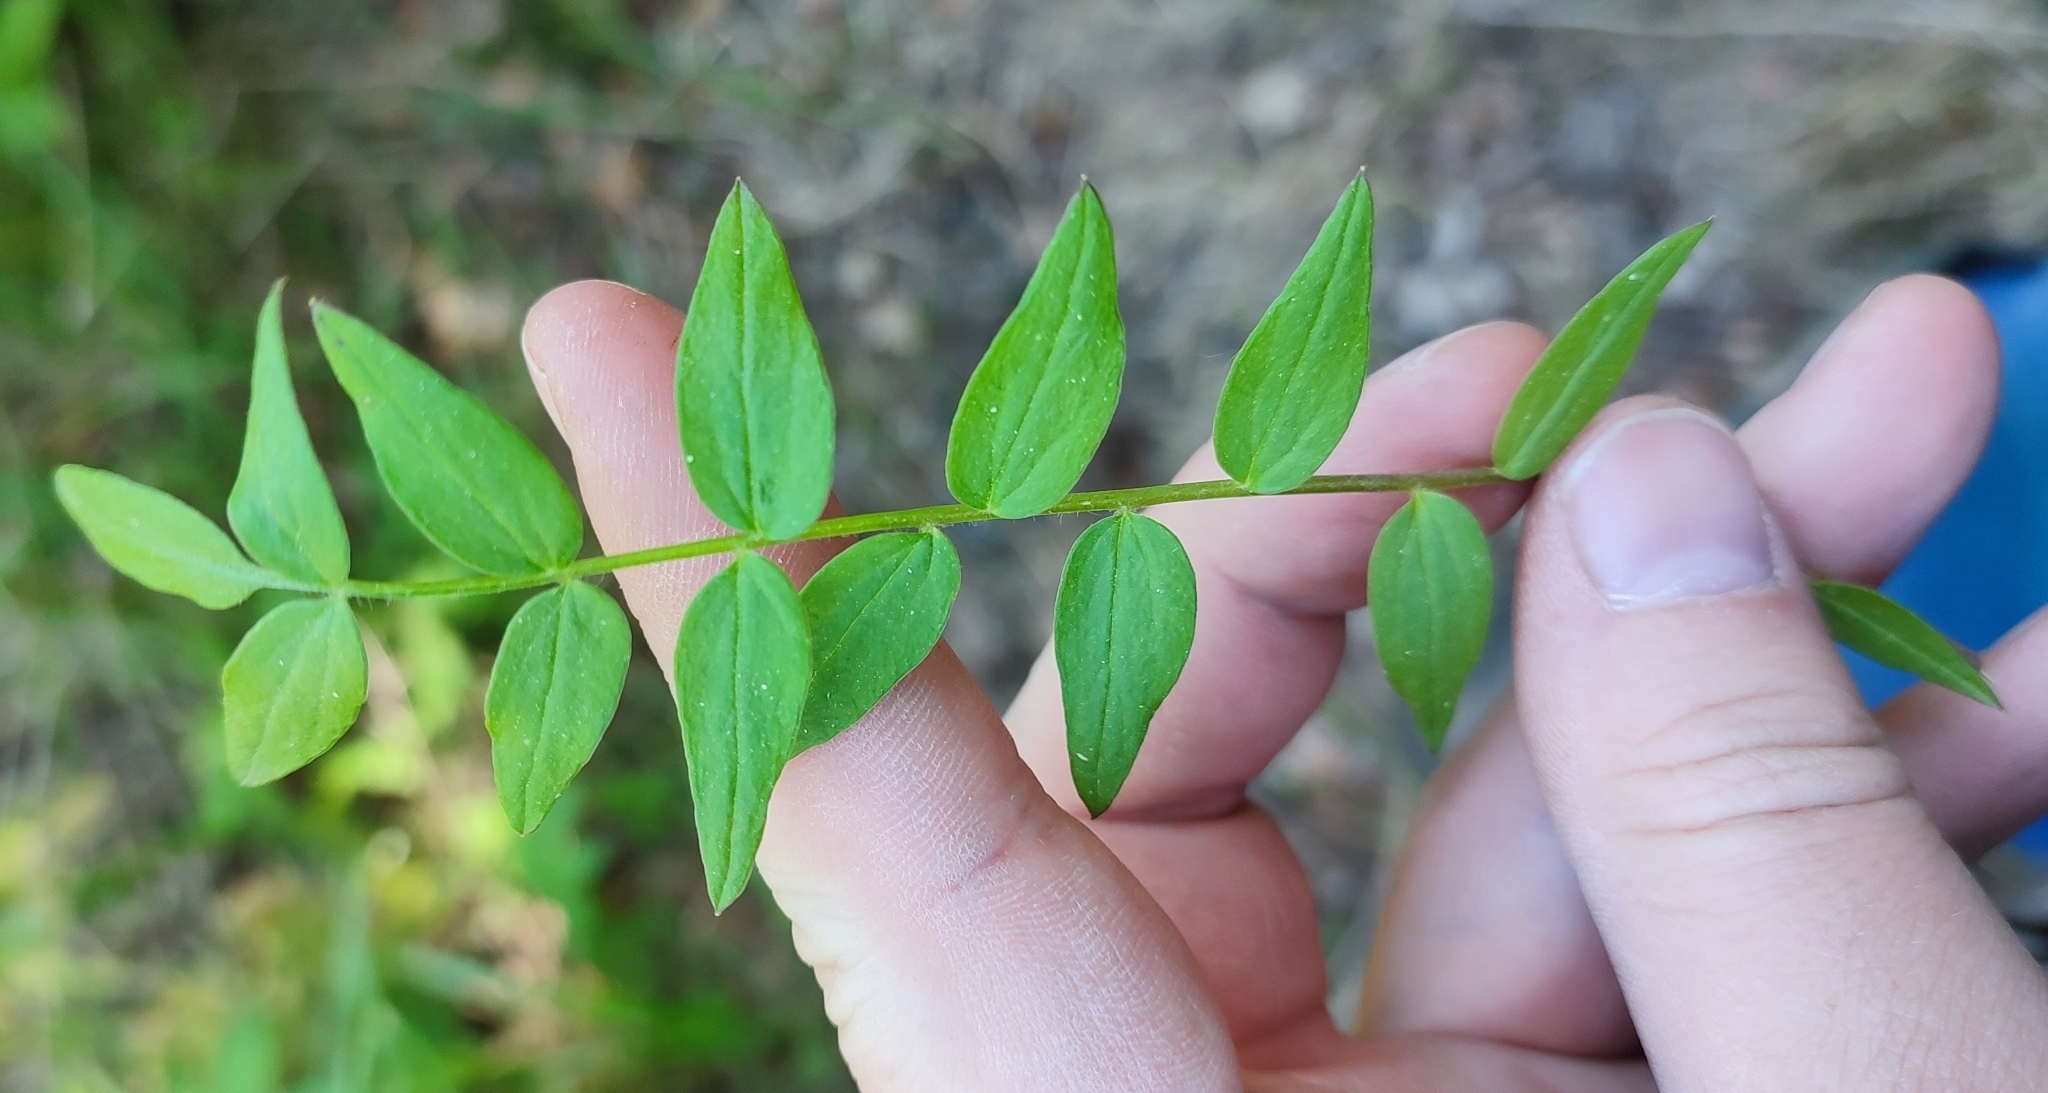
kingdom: Plantae
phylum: Tracheophyta
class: Magnoliopsida
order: Ericales
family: Polemoniaceae
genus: Polemonium
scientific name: Polemonium caeruleum
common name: Jacob's-ladder
